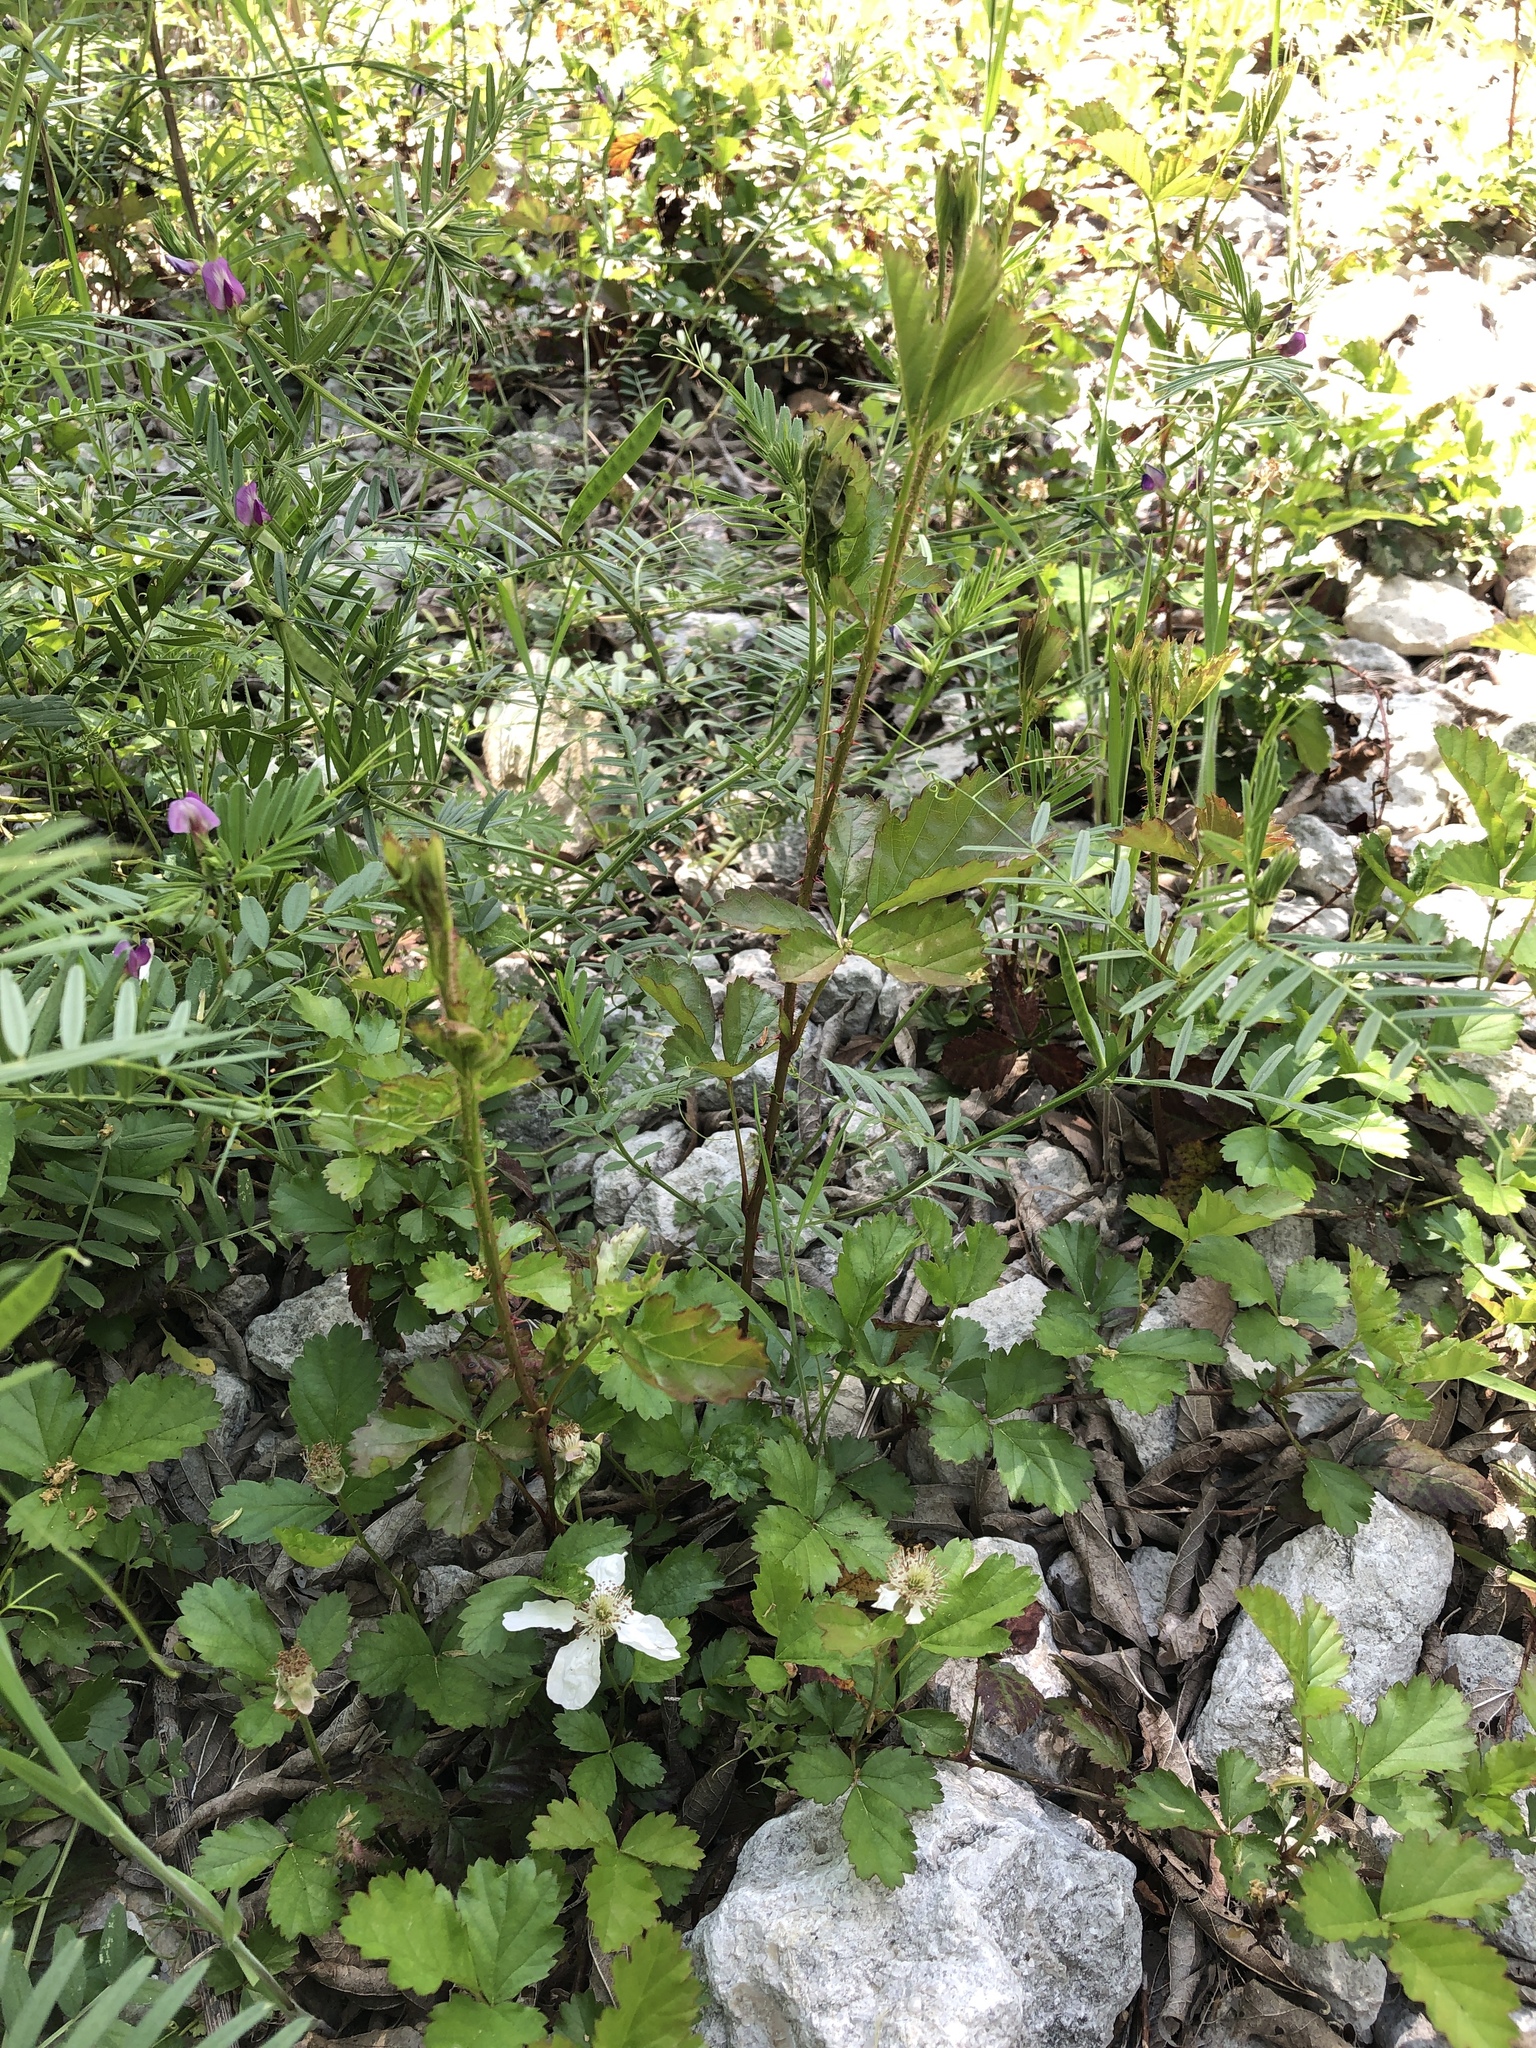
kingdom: Plantae
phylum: Tracheophyta
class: Magnoliopsida
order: Rosales
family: Rosaceae
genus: Rubus
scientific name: Rubus trivialis
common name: Southern dewberry
